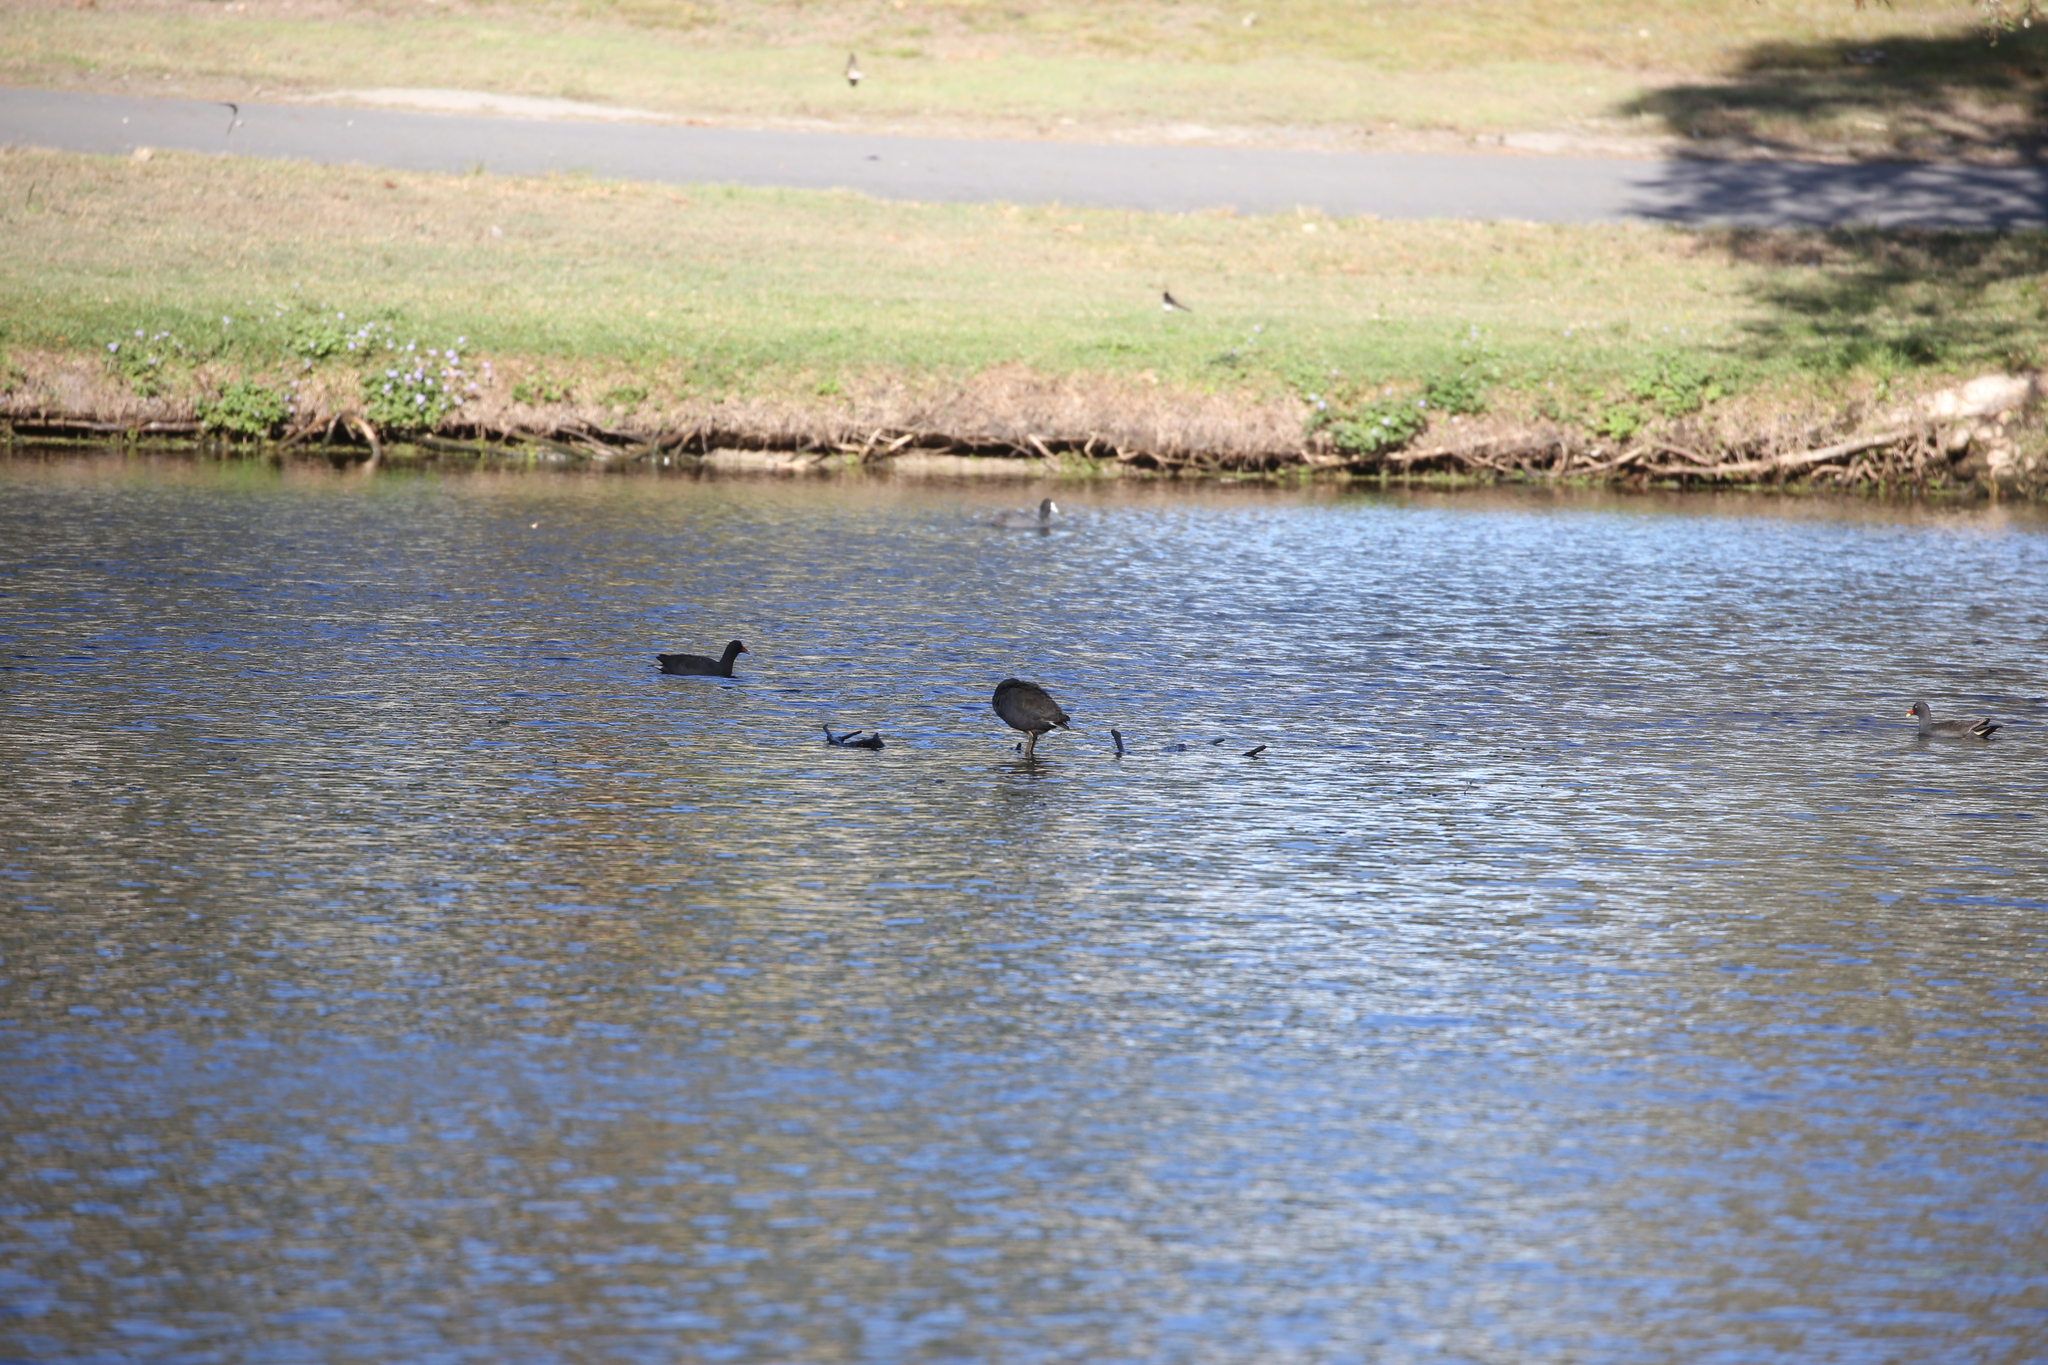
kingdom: Animalia
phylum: Chordata
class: Aves
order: Gruiformes
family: Rallidae
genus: Gallinula
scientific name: Gallinula tenebrosa
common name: Dusky moorhen
